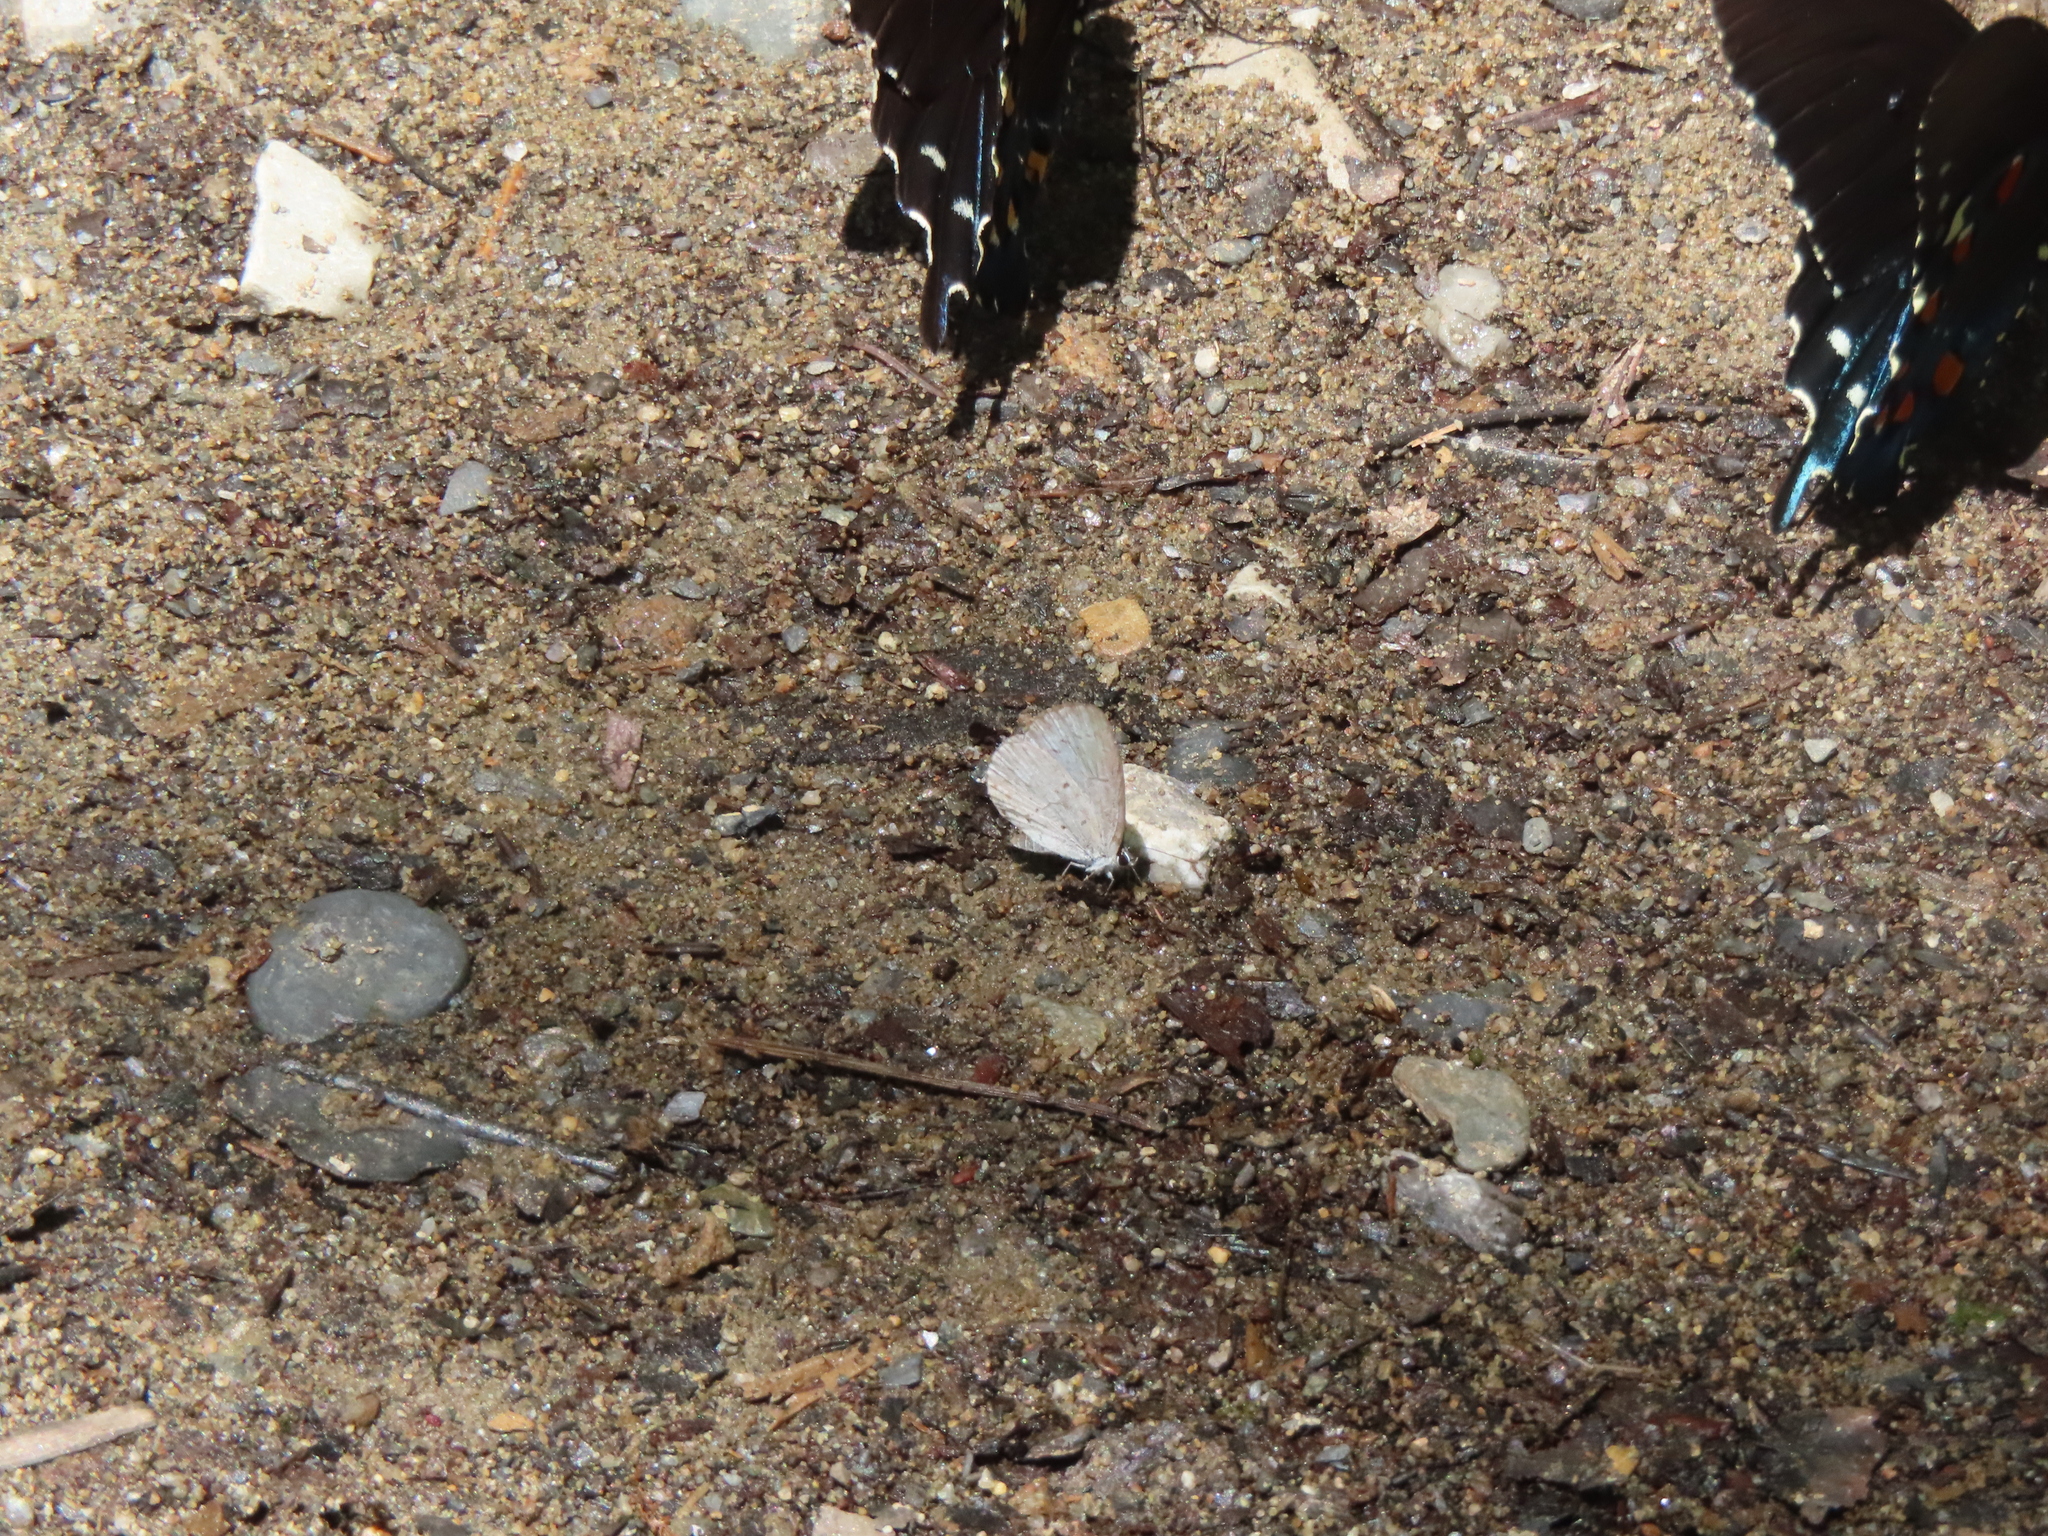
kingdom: Animalia
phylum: Arthropoda
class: Insecta
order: Lepidoptera
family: Papilionidae
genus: Battus
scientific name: Battus philenor
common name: Pipevine swallowtail
